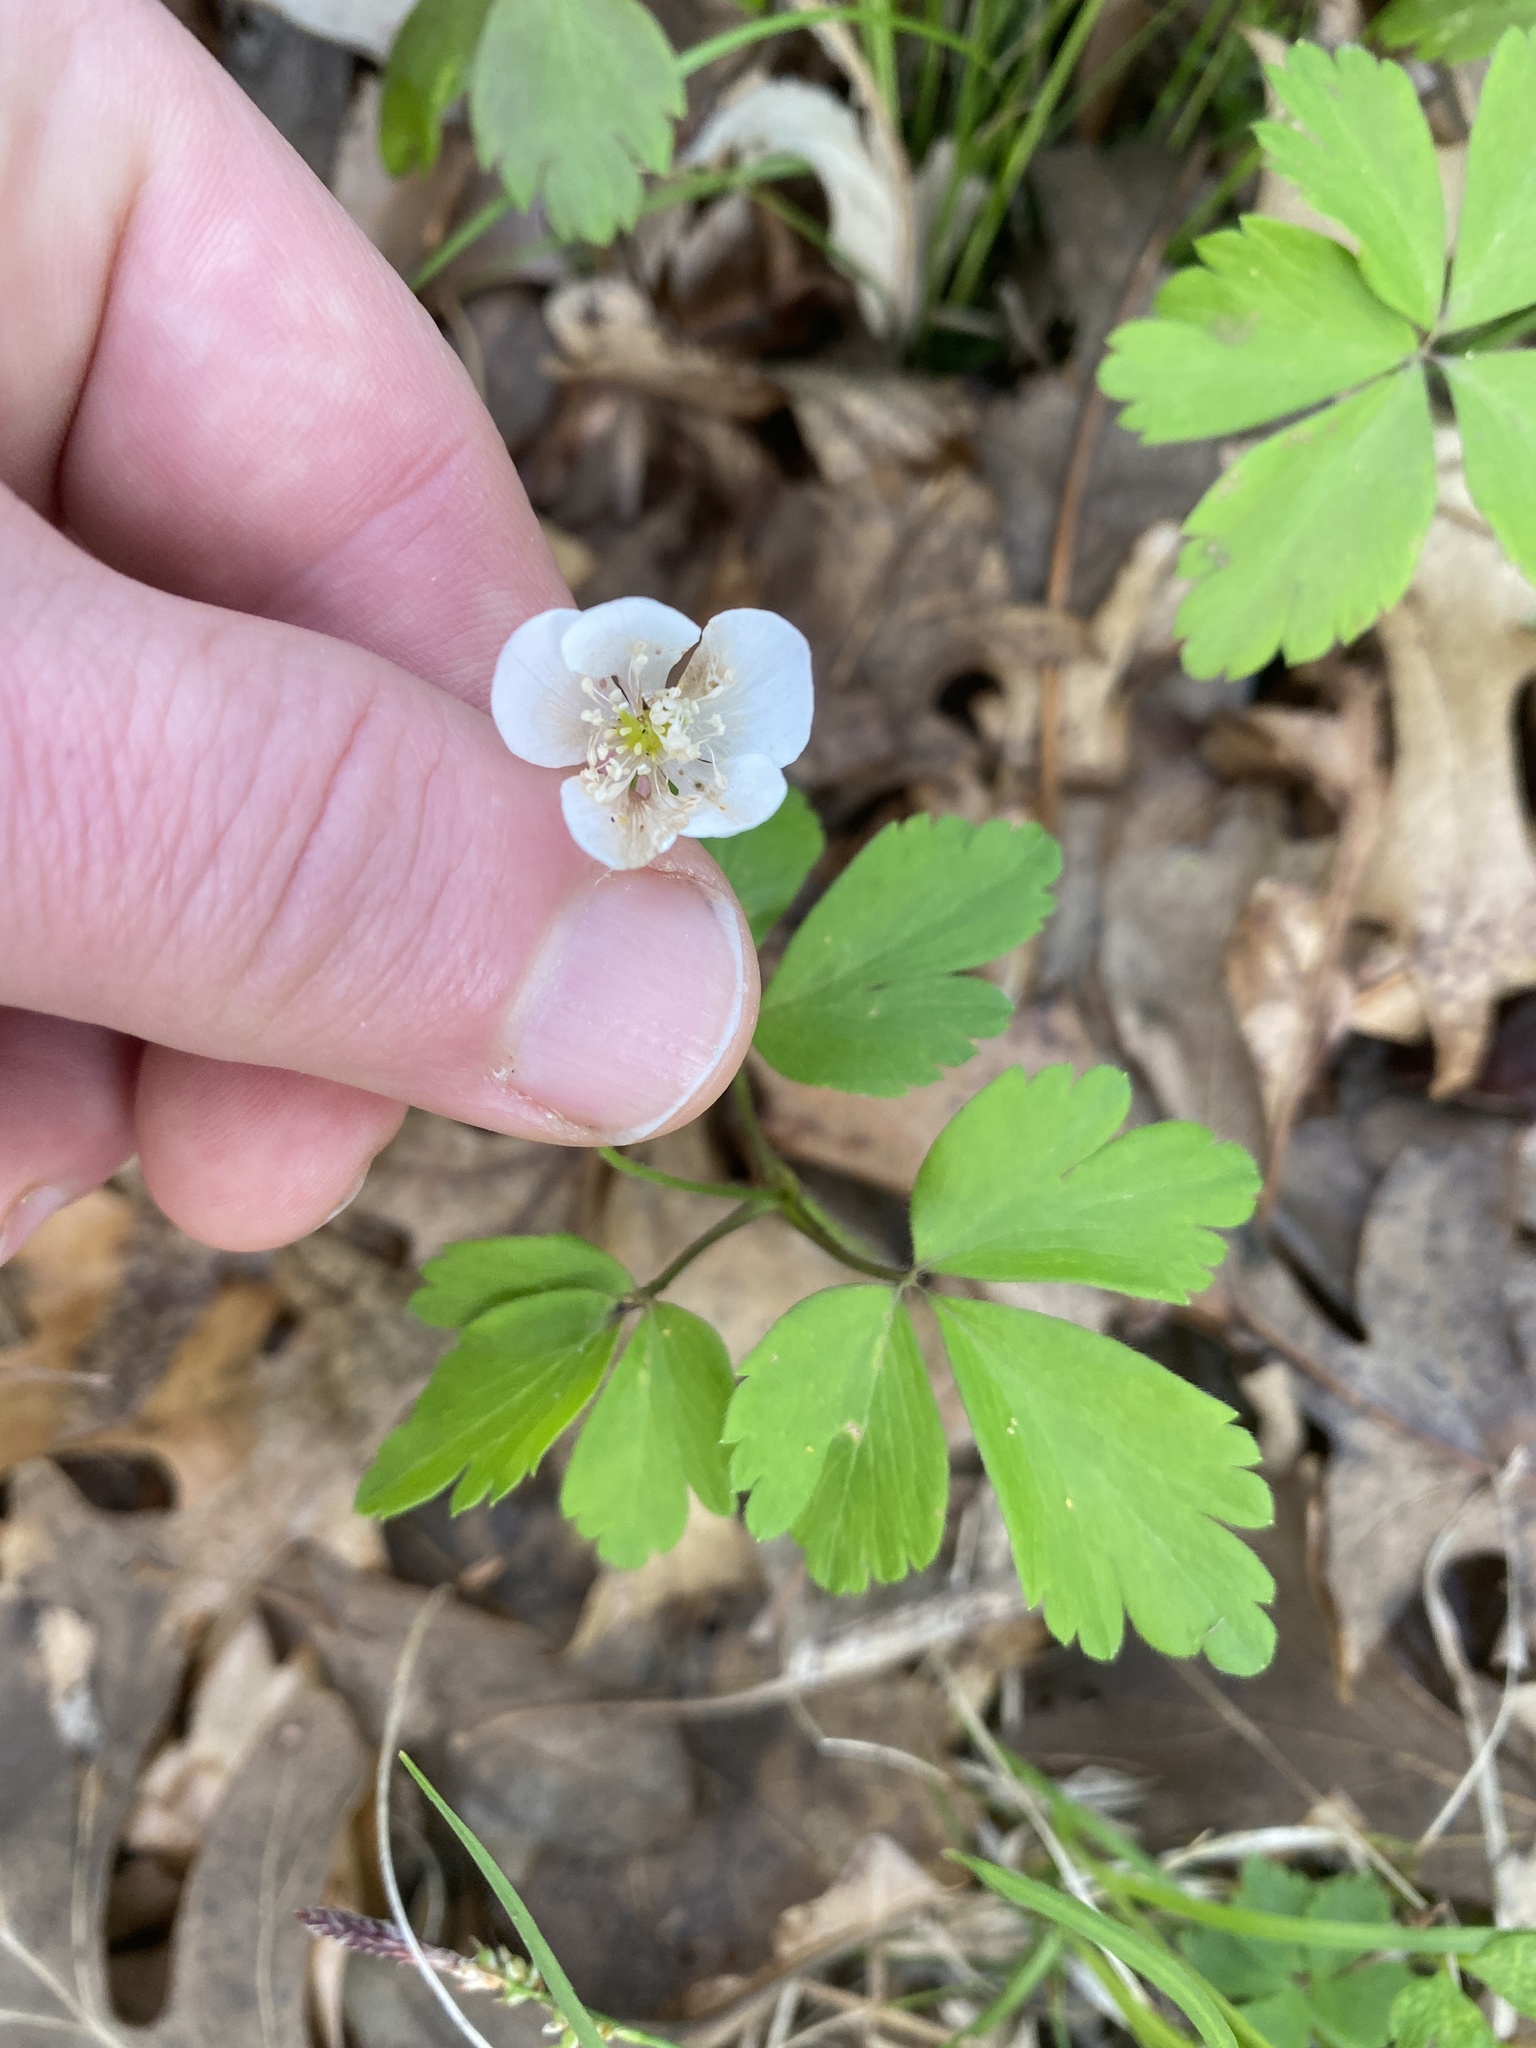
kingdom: Plantae
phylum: Tracheophyta
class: Magnoliopsida
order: Ranunculales
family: Ranunculaceae
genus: Anemone
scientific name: Anemone quinquefolia
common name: Wood anemone
